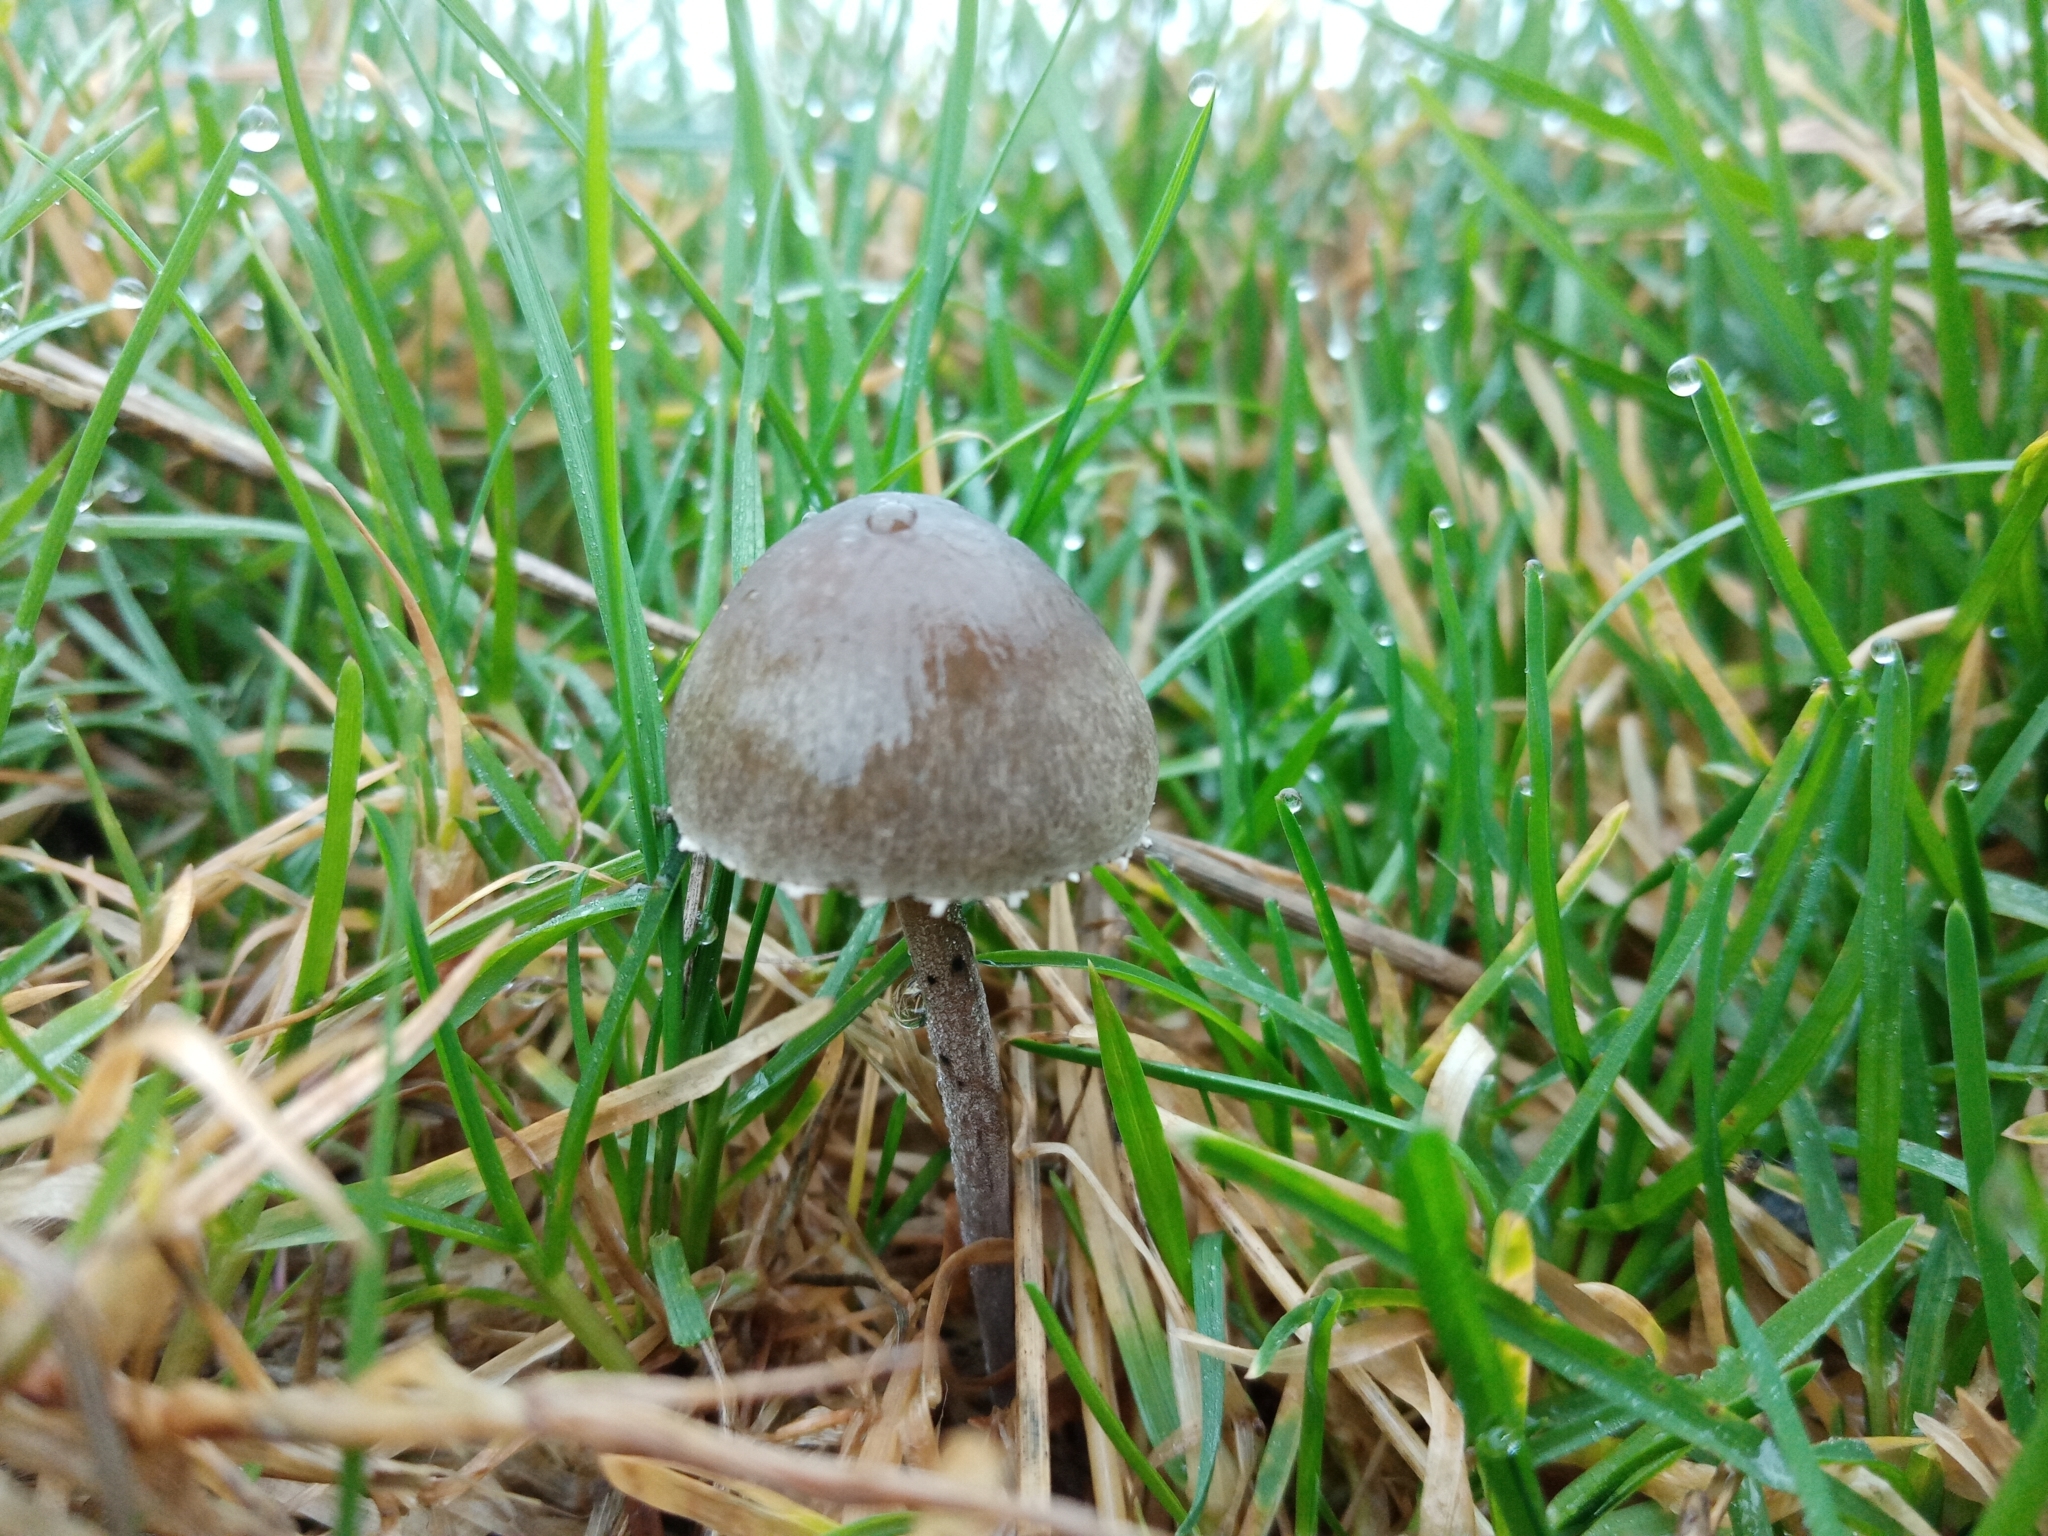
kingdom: Fungi
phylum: Basidiomycota
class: Agaricomycetes
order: Agaricales
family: Bolbitiaceae
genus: Panaeolus
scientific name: Panaeolus papilionaceus
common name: Petticoat mottlegill
